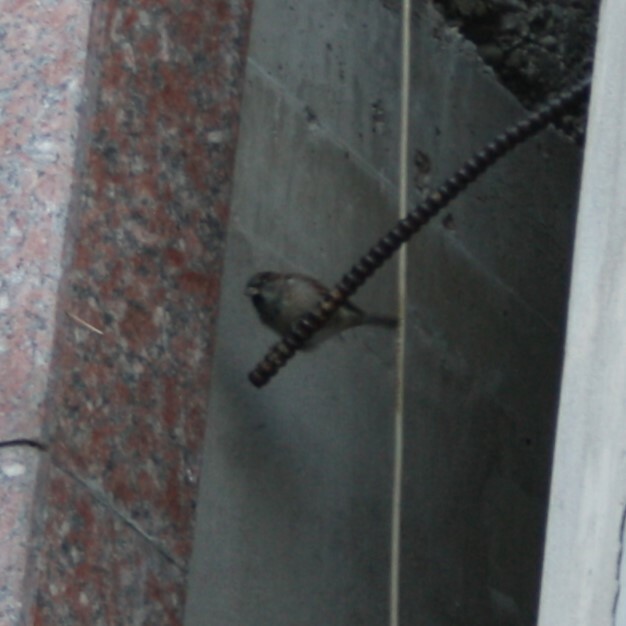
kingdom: Animalia
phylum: Chordata
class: Aves
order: Passeriformes
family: Passeridae
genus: Passer
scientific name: Passer domesticus
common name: House sparrow
